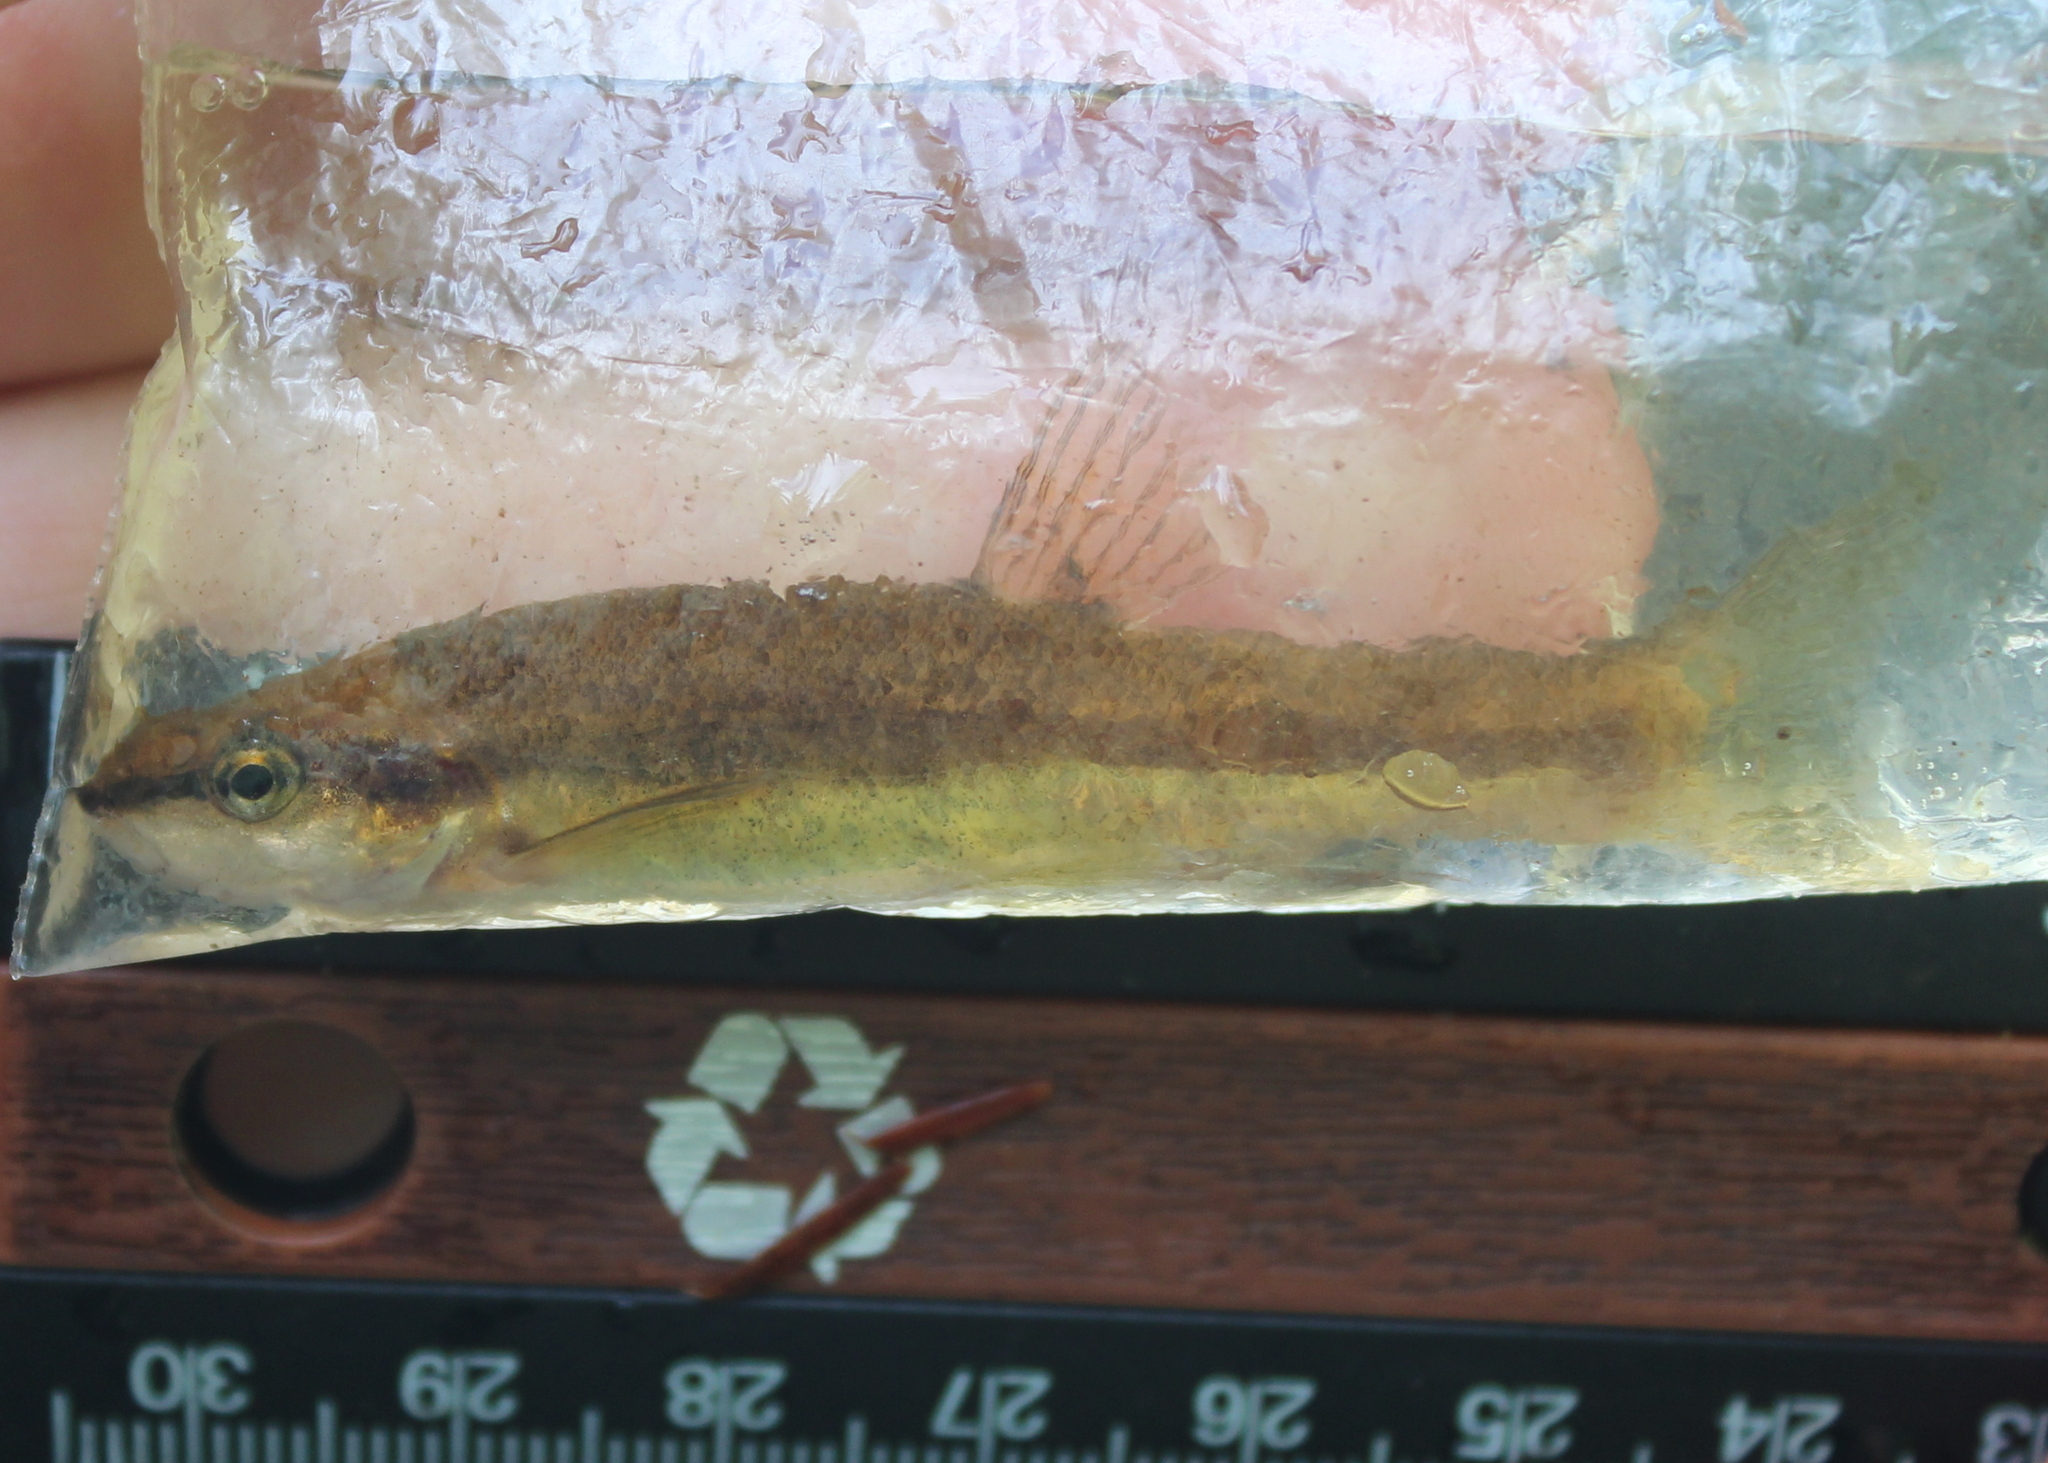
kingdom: Animalia
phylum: Chordata
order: Cypriniformes
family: Cyprinidae
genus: Rhinichthys
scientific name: Rhinichthys atratulus
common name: Eastern blacknose dace
